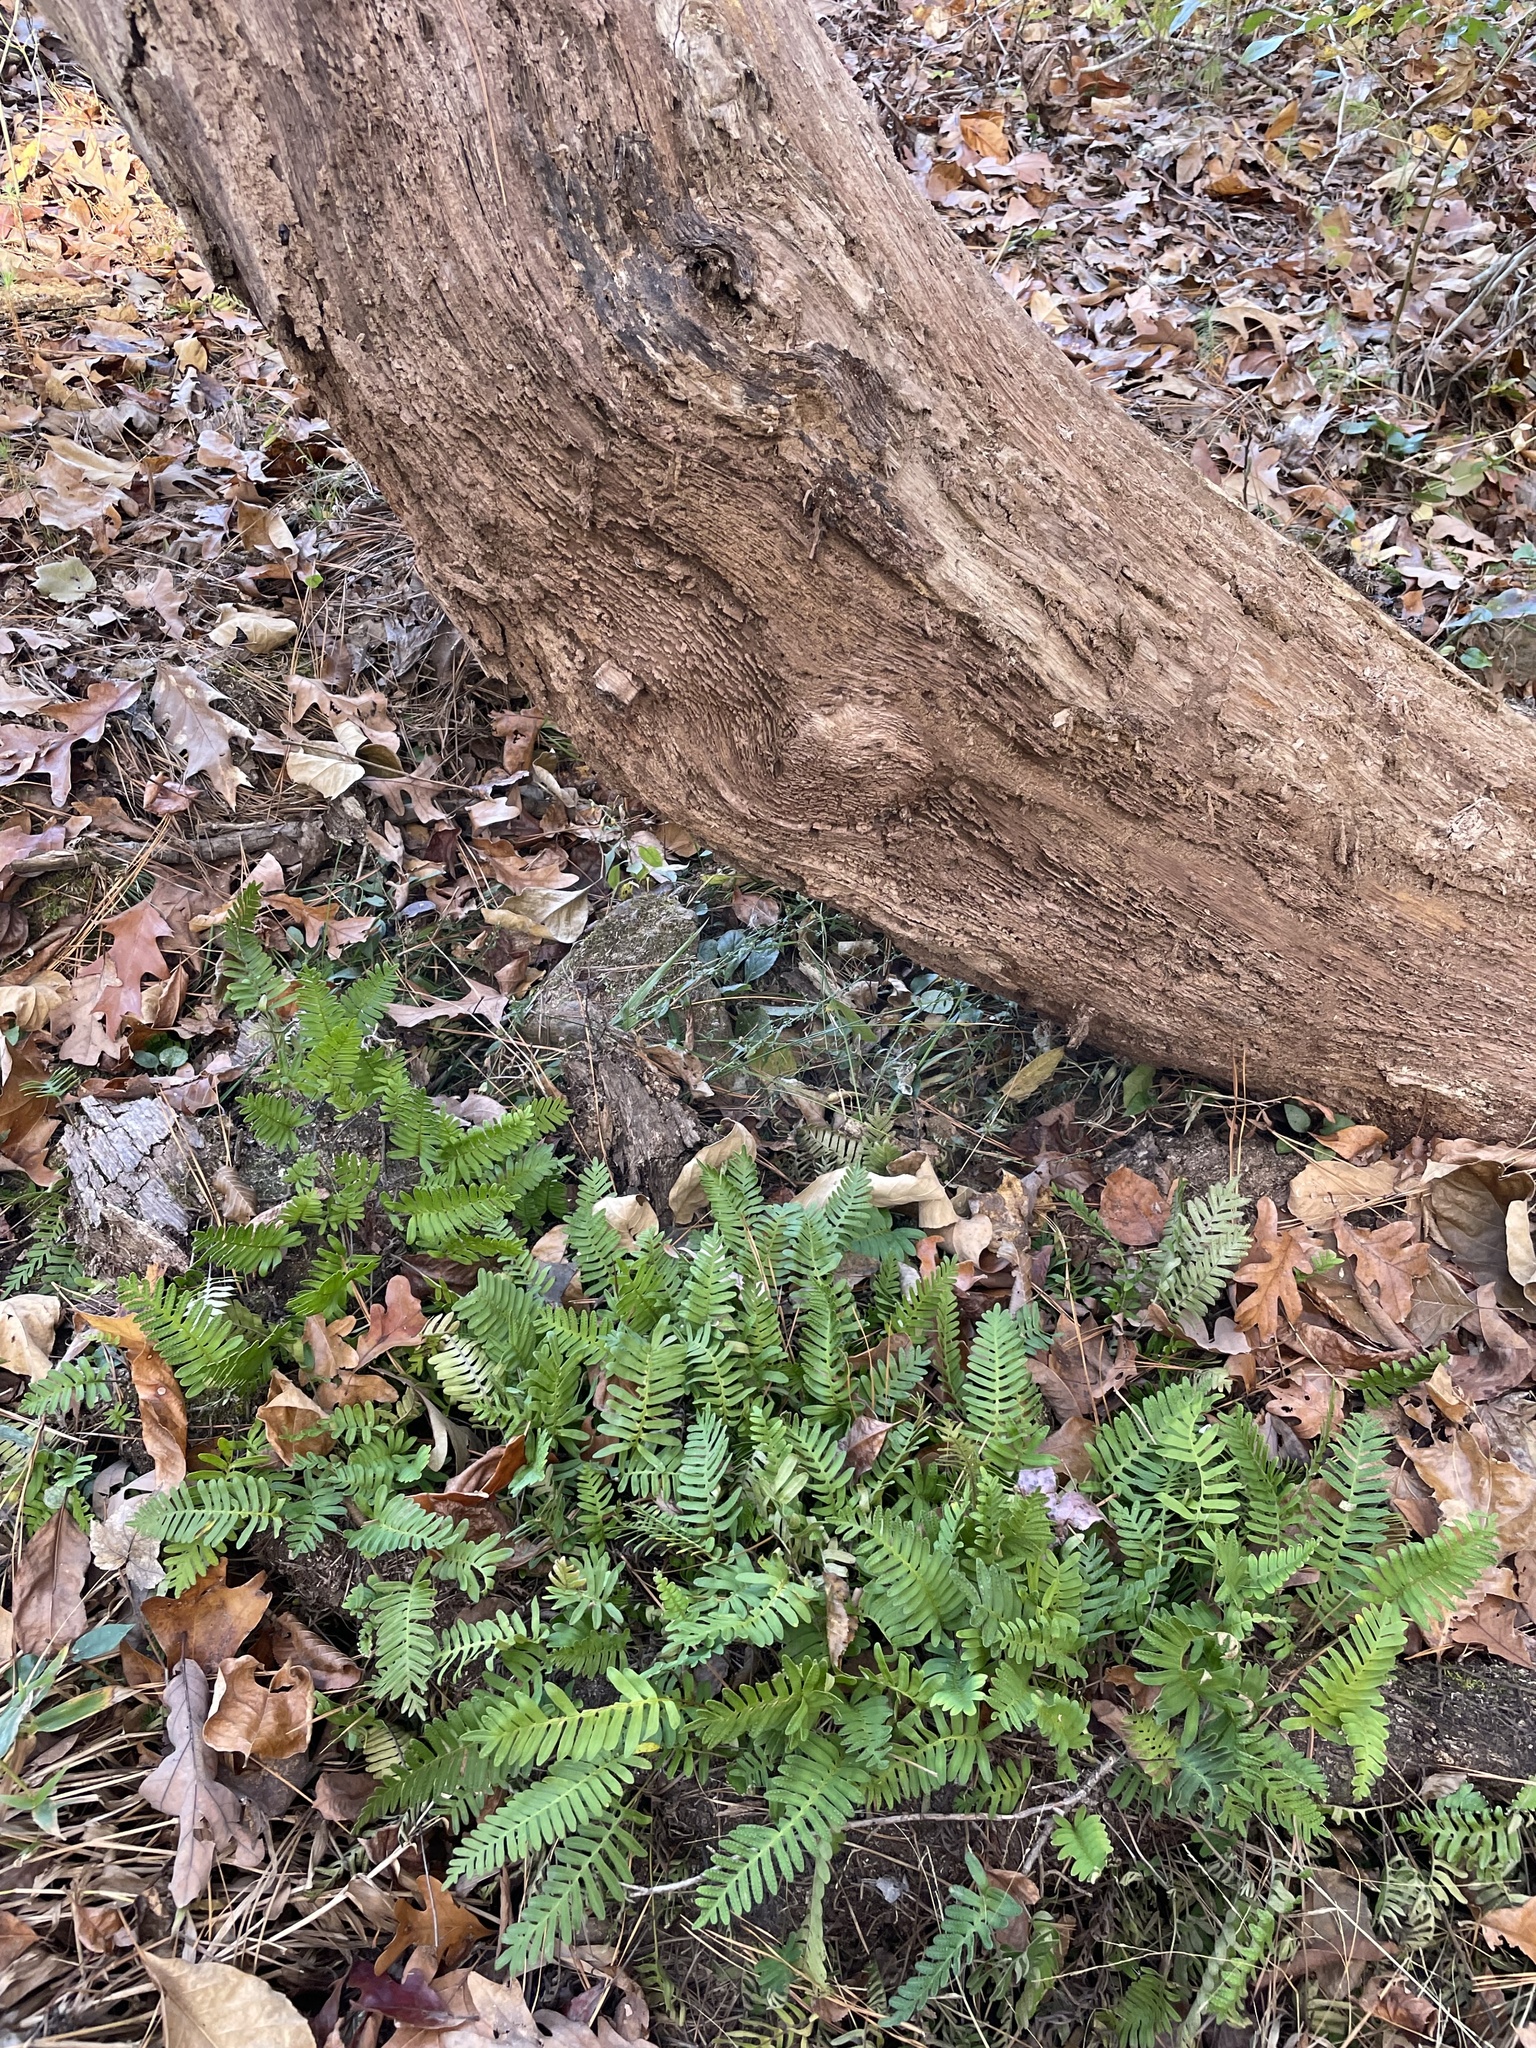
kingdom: Plantae
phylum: Tracheophyta
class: Polypodiopsida
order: Polypodiales
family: Polypodiaceae
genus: Pleopeltis
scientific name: Pleopeltis michauxiana
